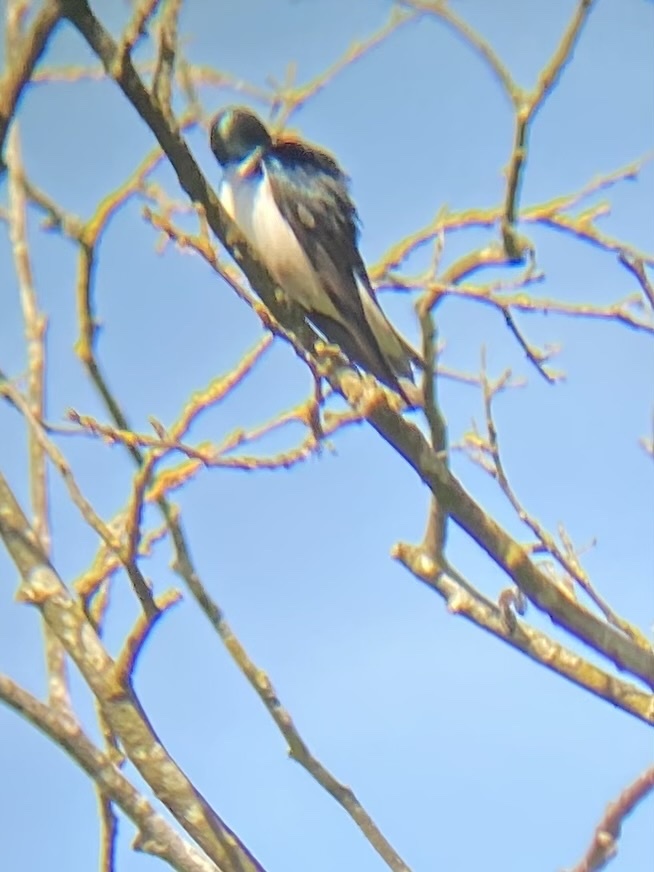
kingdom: Animalia
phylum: Chordata
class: Aves
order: Passeriformes
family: Hirundinidae
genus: Tachycineta
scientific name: Tachycineta bicolor
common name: Tree swallow
